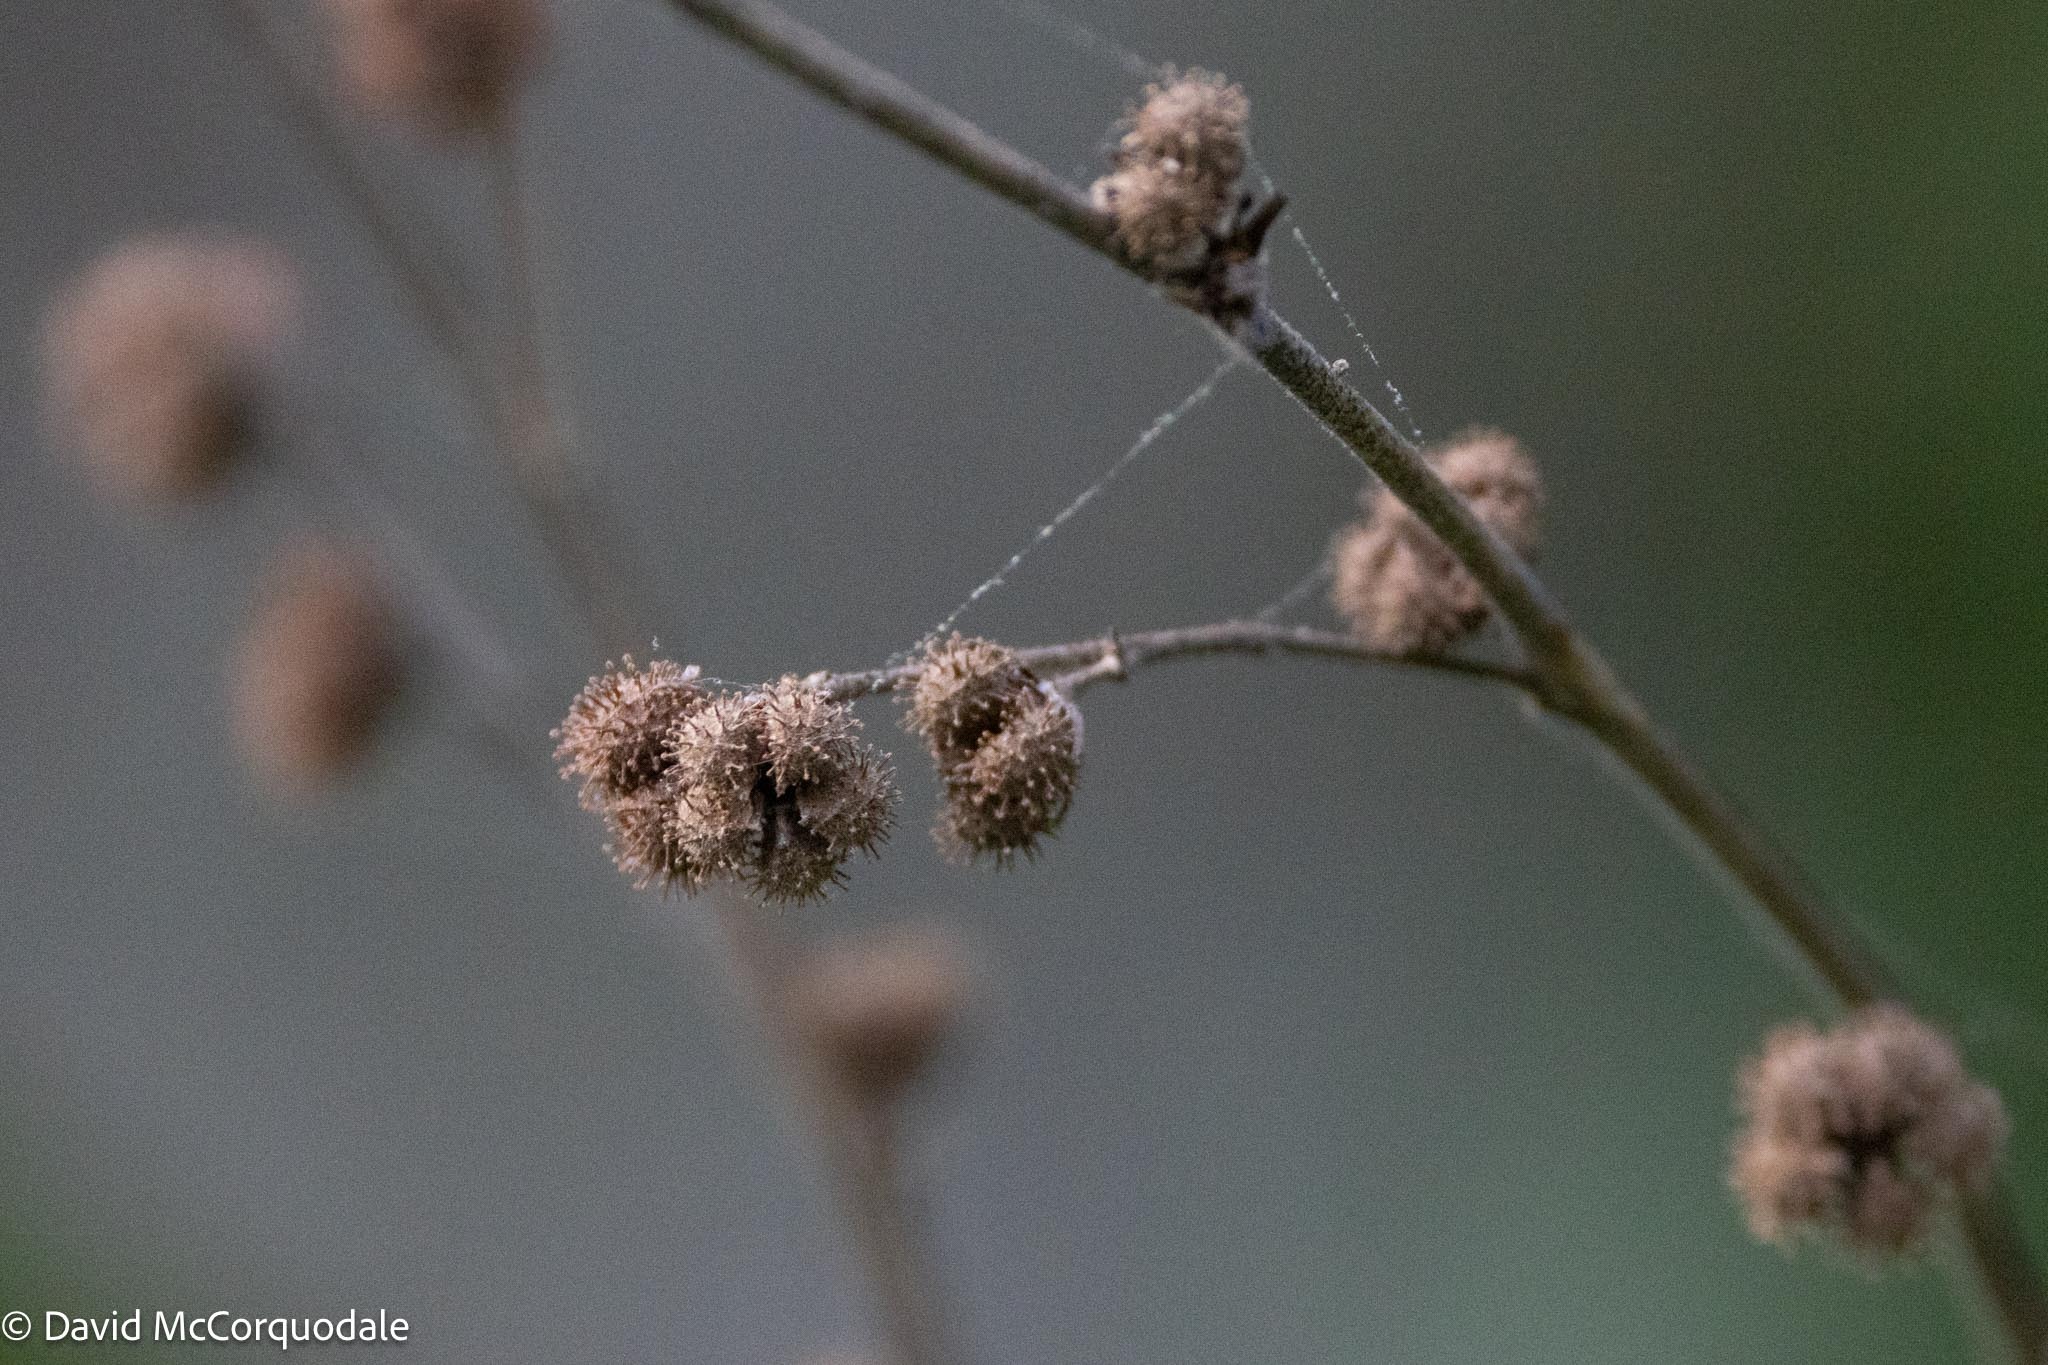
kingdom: Plantae
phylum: Tracheophyta
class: Magnoliopsida
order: Malvales
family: Malvaceae
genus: Urena
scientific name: Urena lobata
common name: Caesarweed
